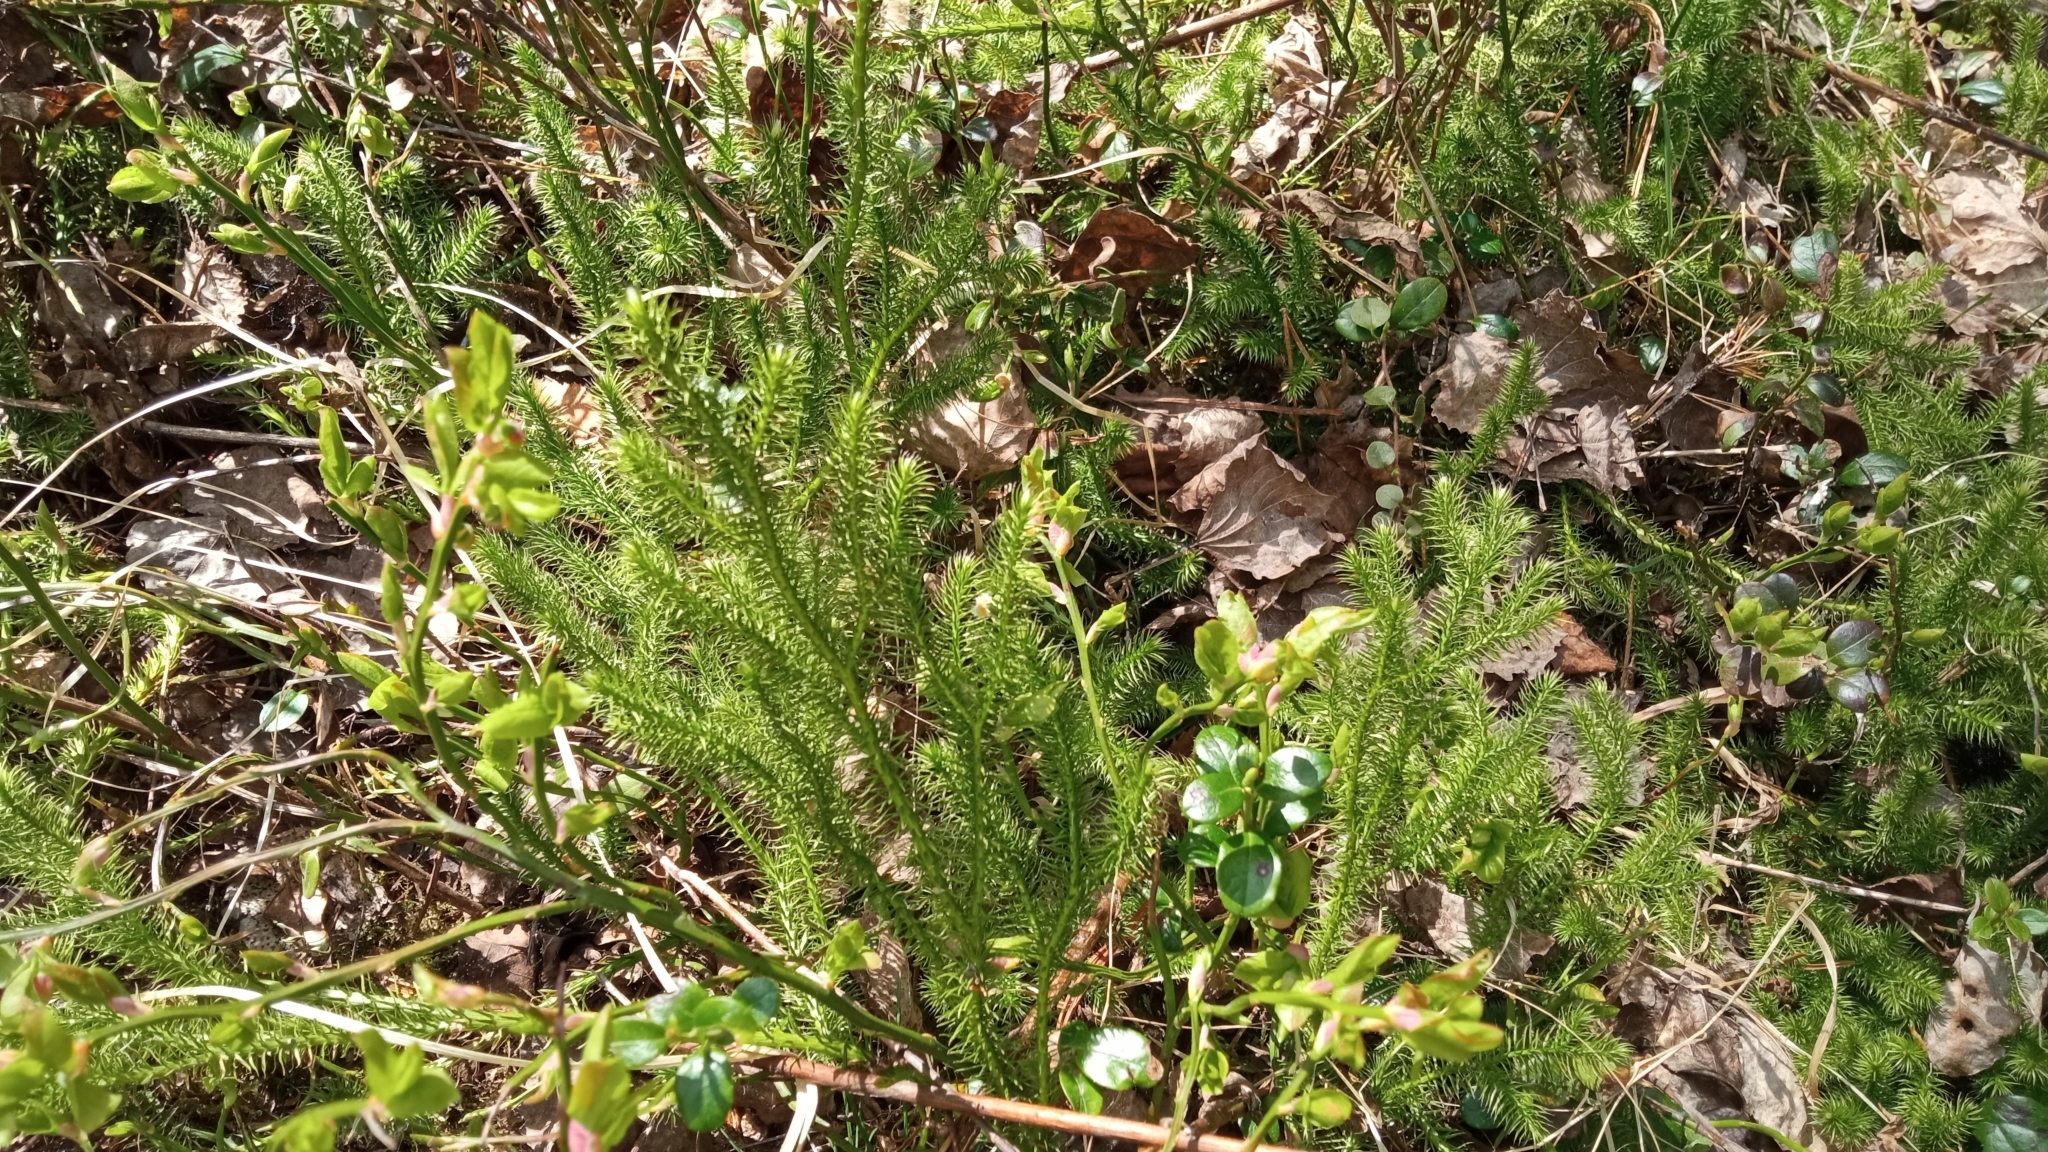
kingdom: Plantae
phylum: Tracheophyta
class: Lycopodiopsida
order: Lycopodiales
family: Lycopodiaceae
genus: Lycopodium
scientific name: Lycopodium clavatum
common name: Stag's-horn clubmoss
